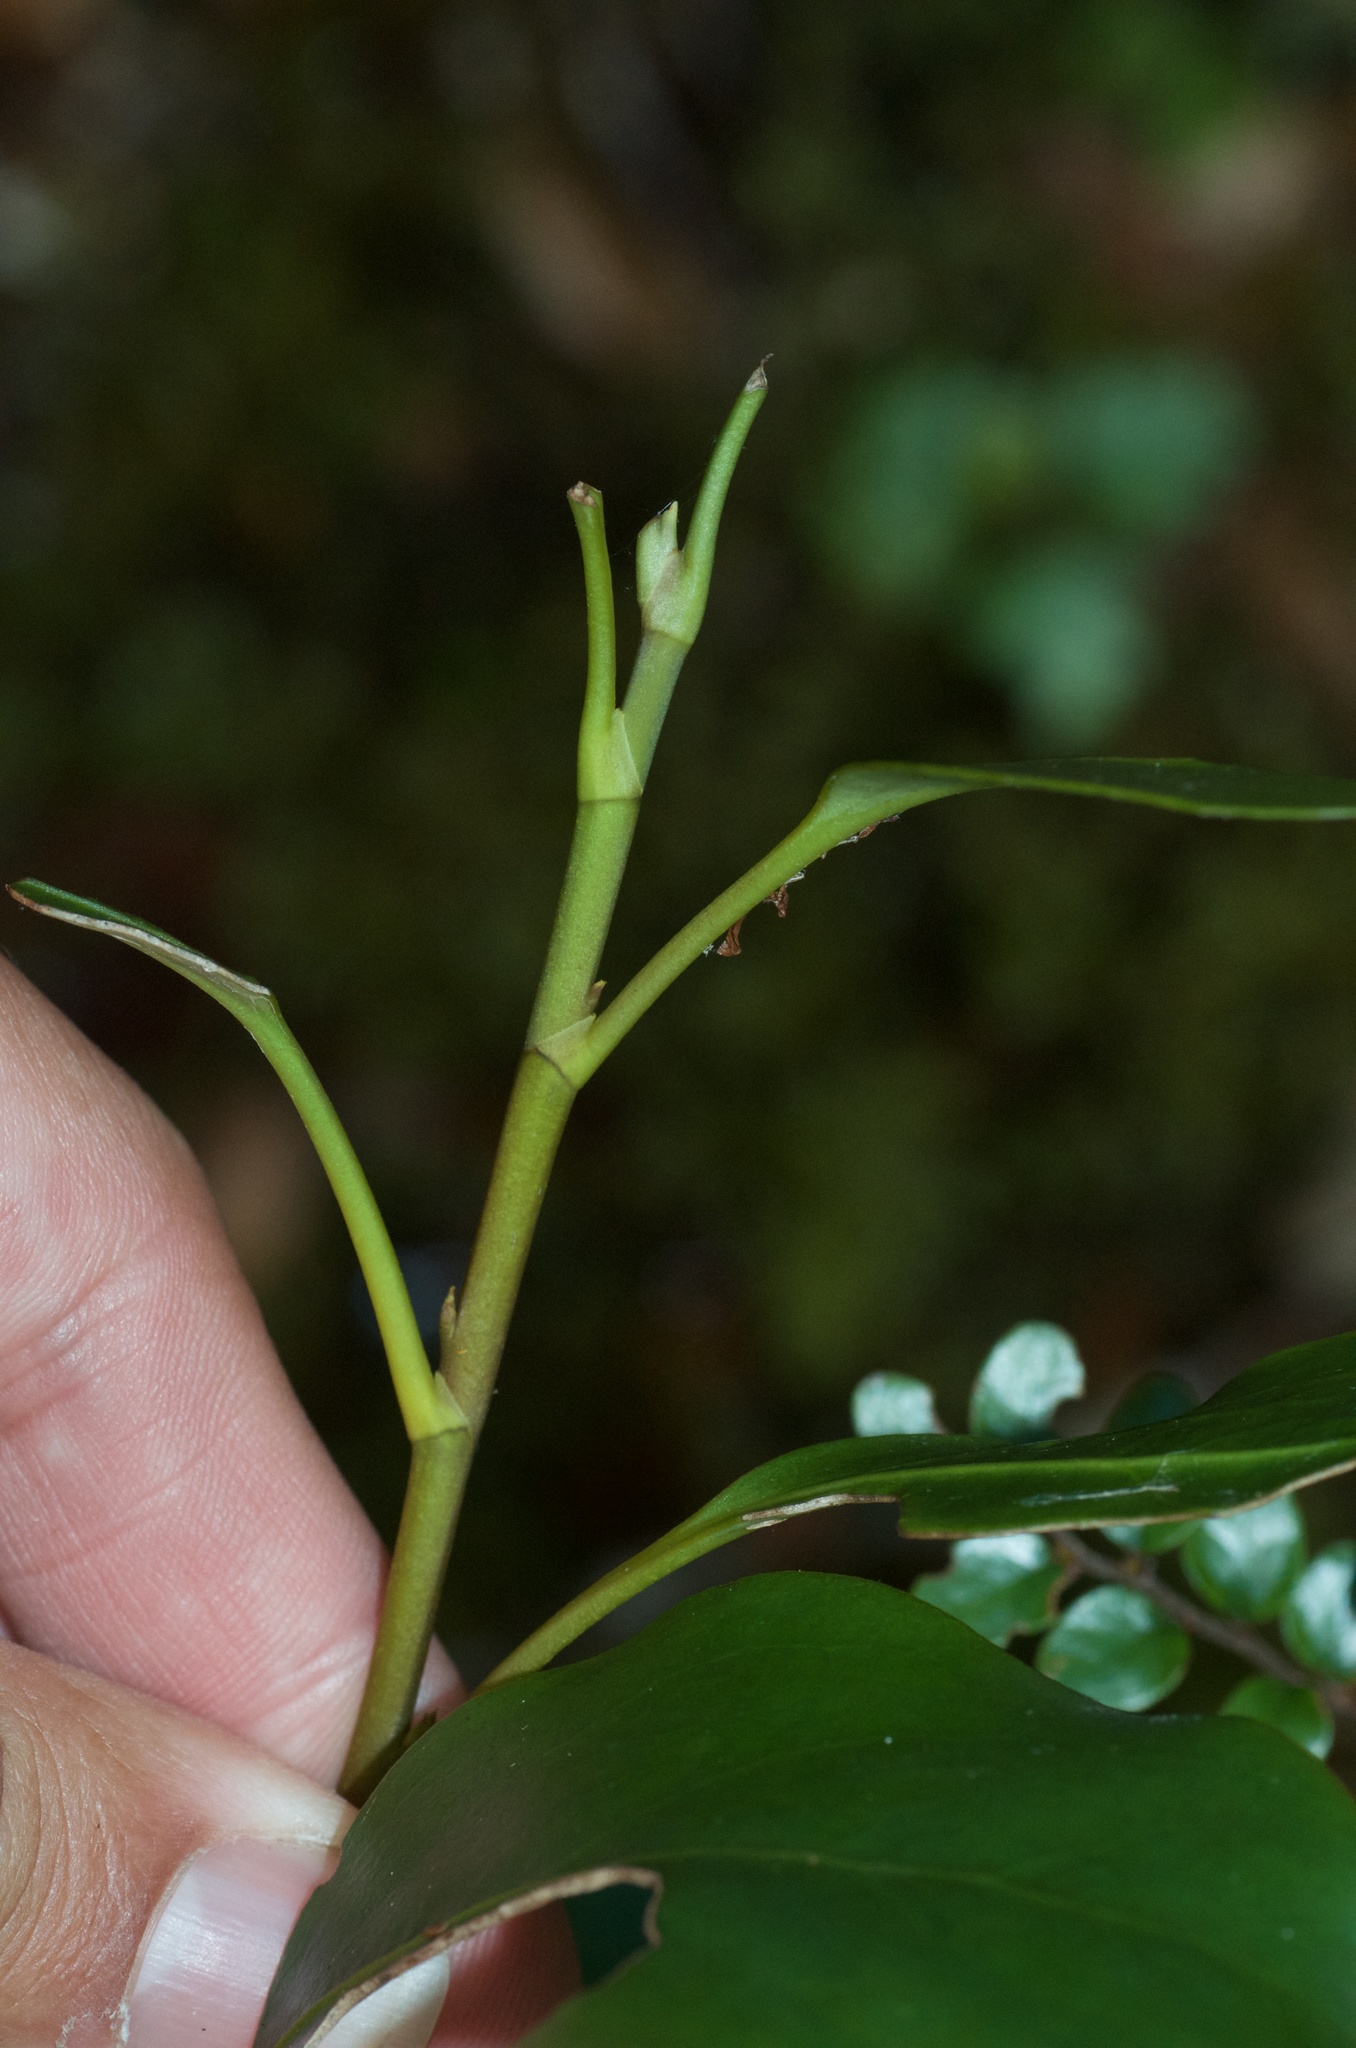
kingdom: Plantae
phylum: Tracheophyta
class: Magnoliopsida
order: Apiales
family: Griseliniaceae
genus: Griselinia
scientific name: Griselinia littoralis
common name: New zealand broadleaf
